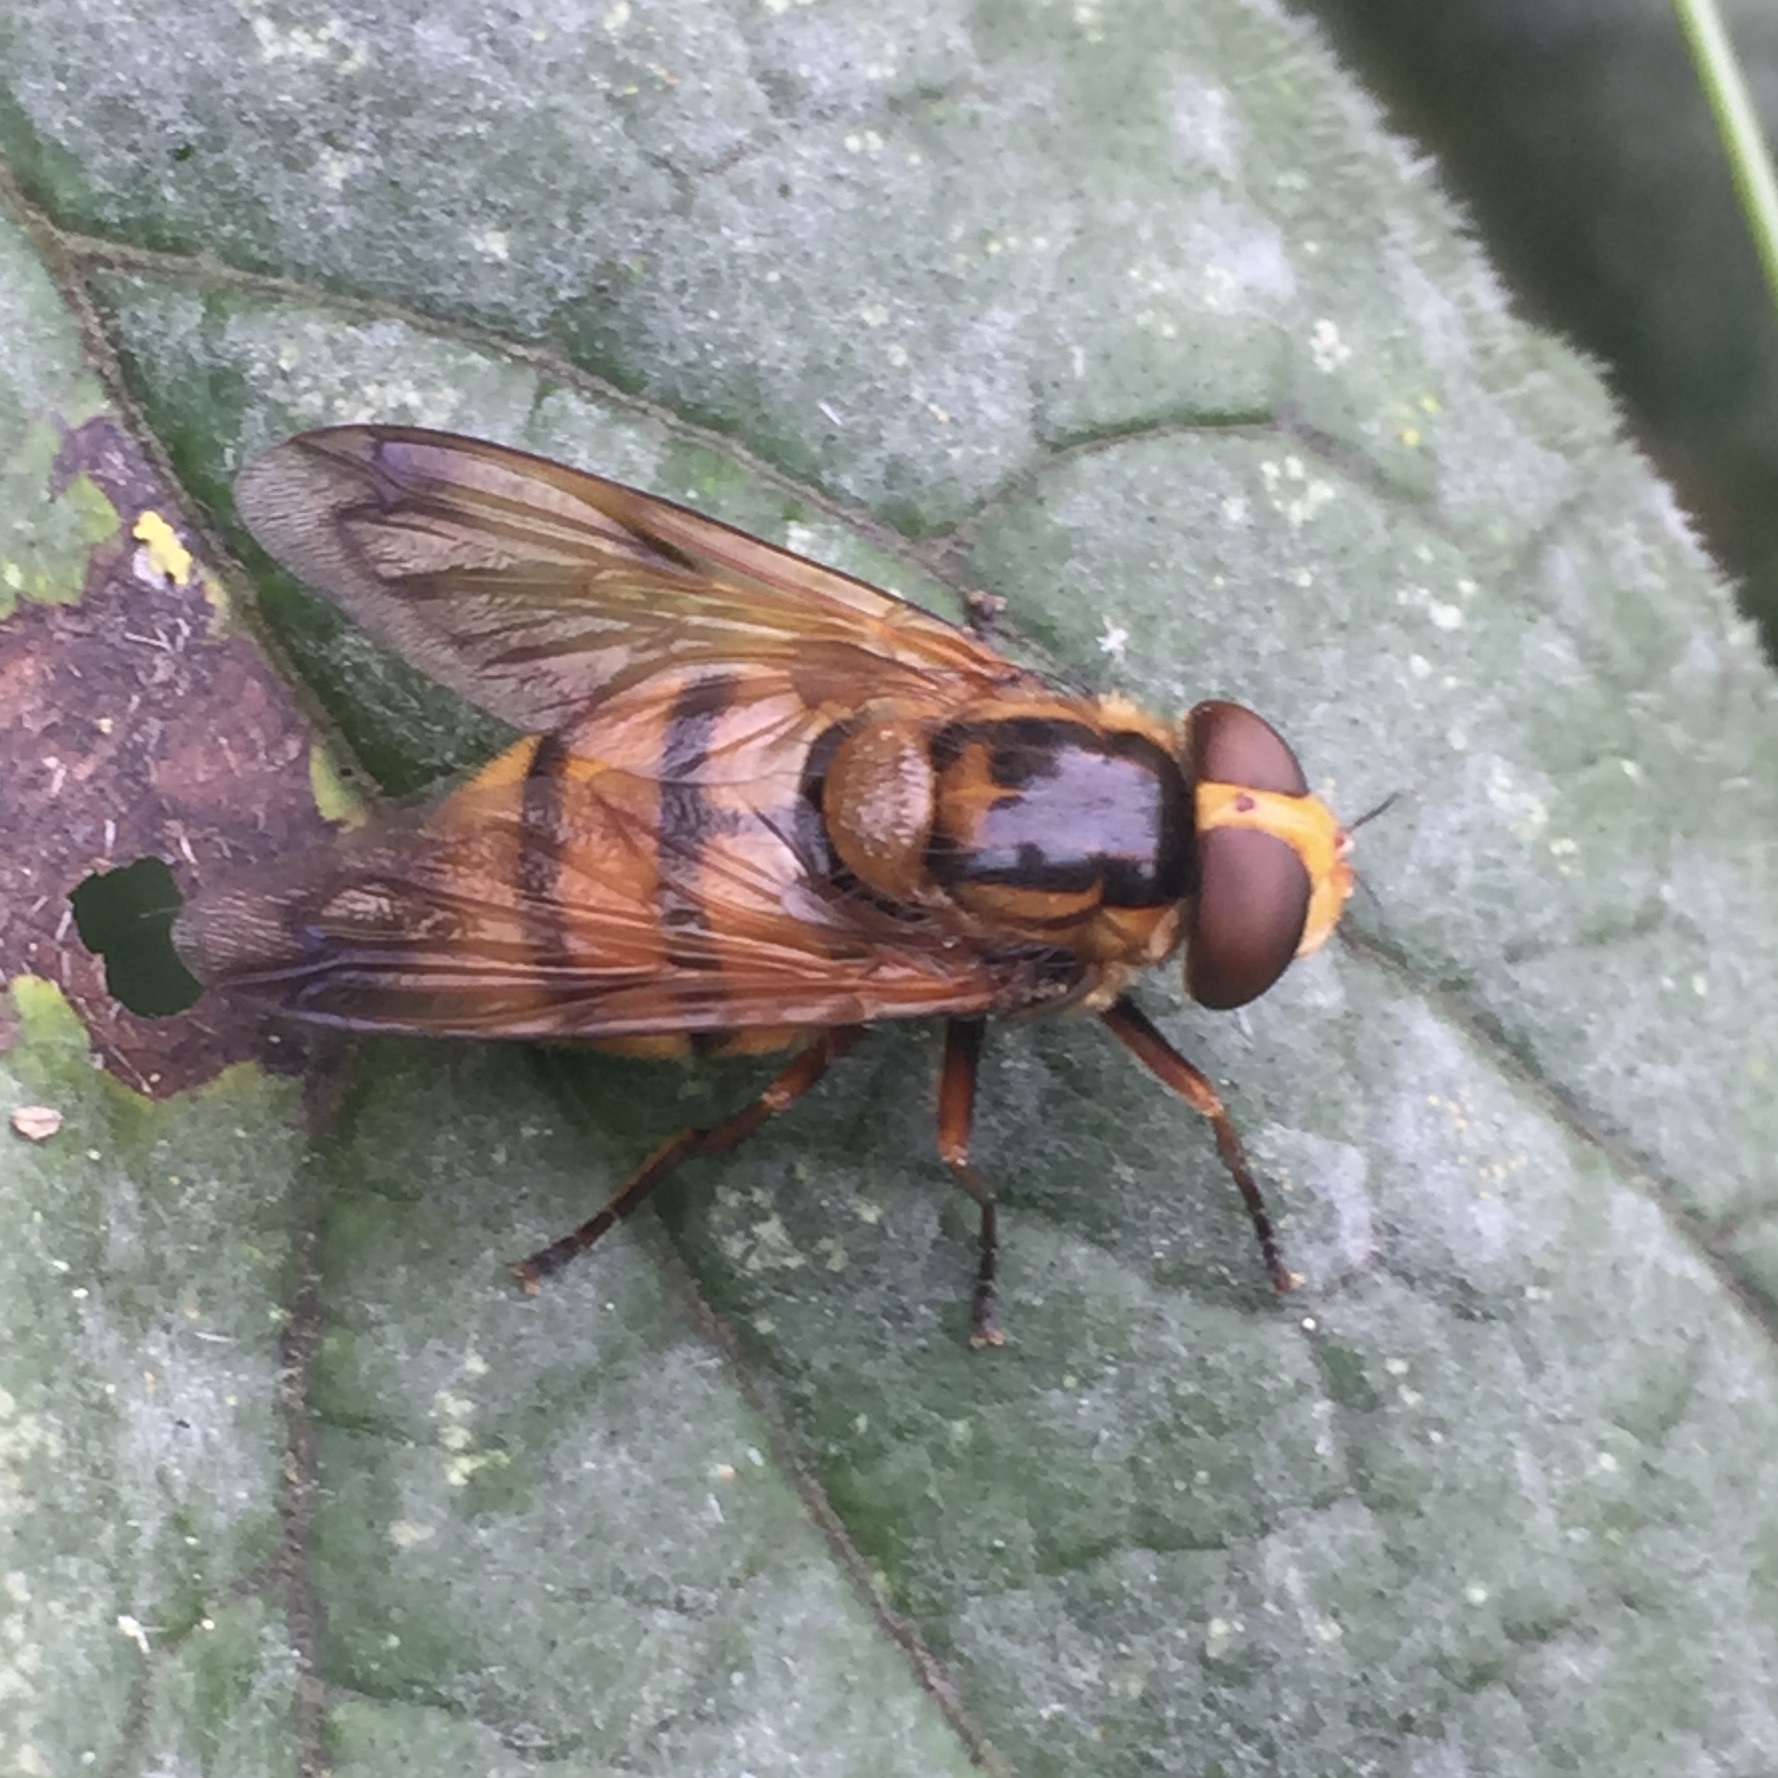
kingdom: Animalia
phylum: Arthropoda
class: Insecta
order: Diptera
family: Syrphidae
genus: Volucella
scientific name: Volucella inanis
